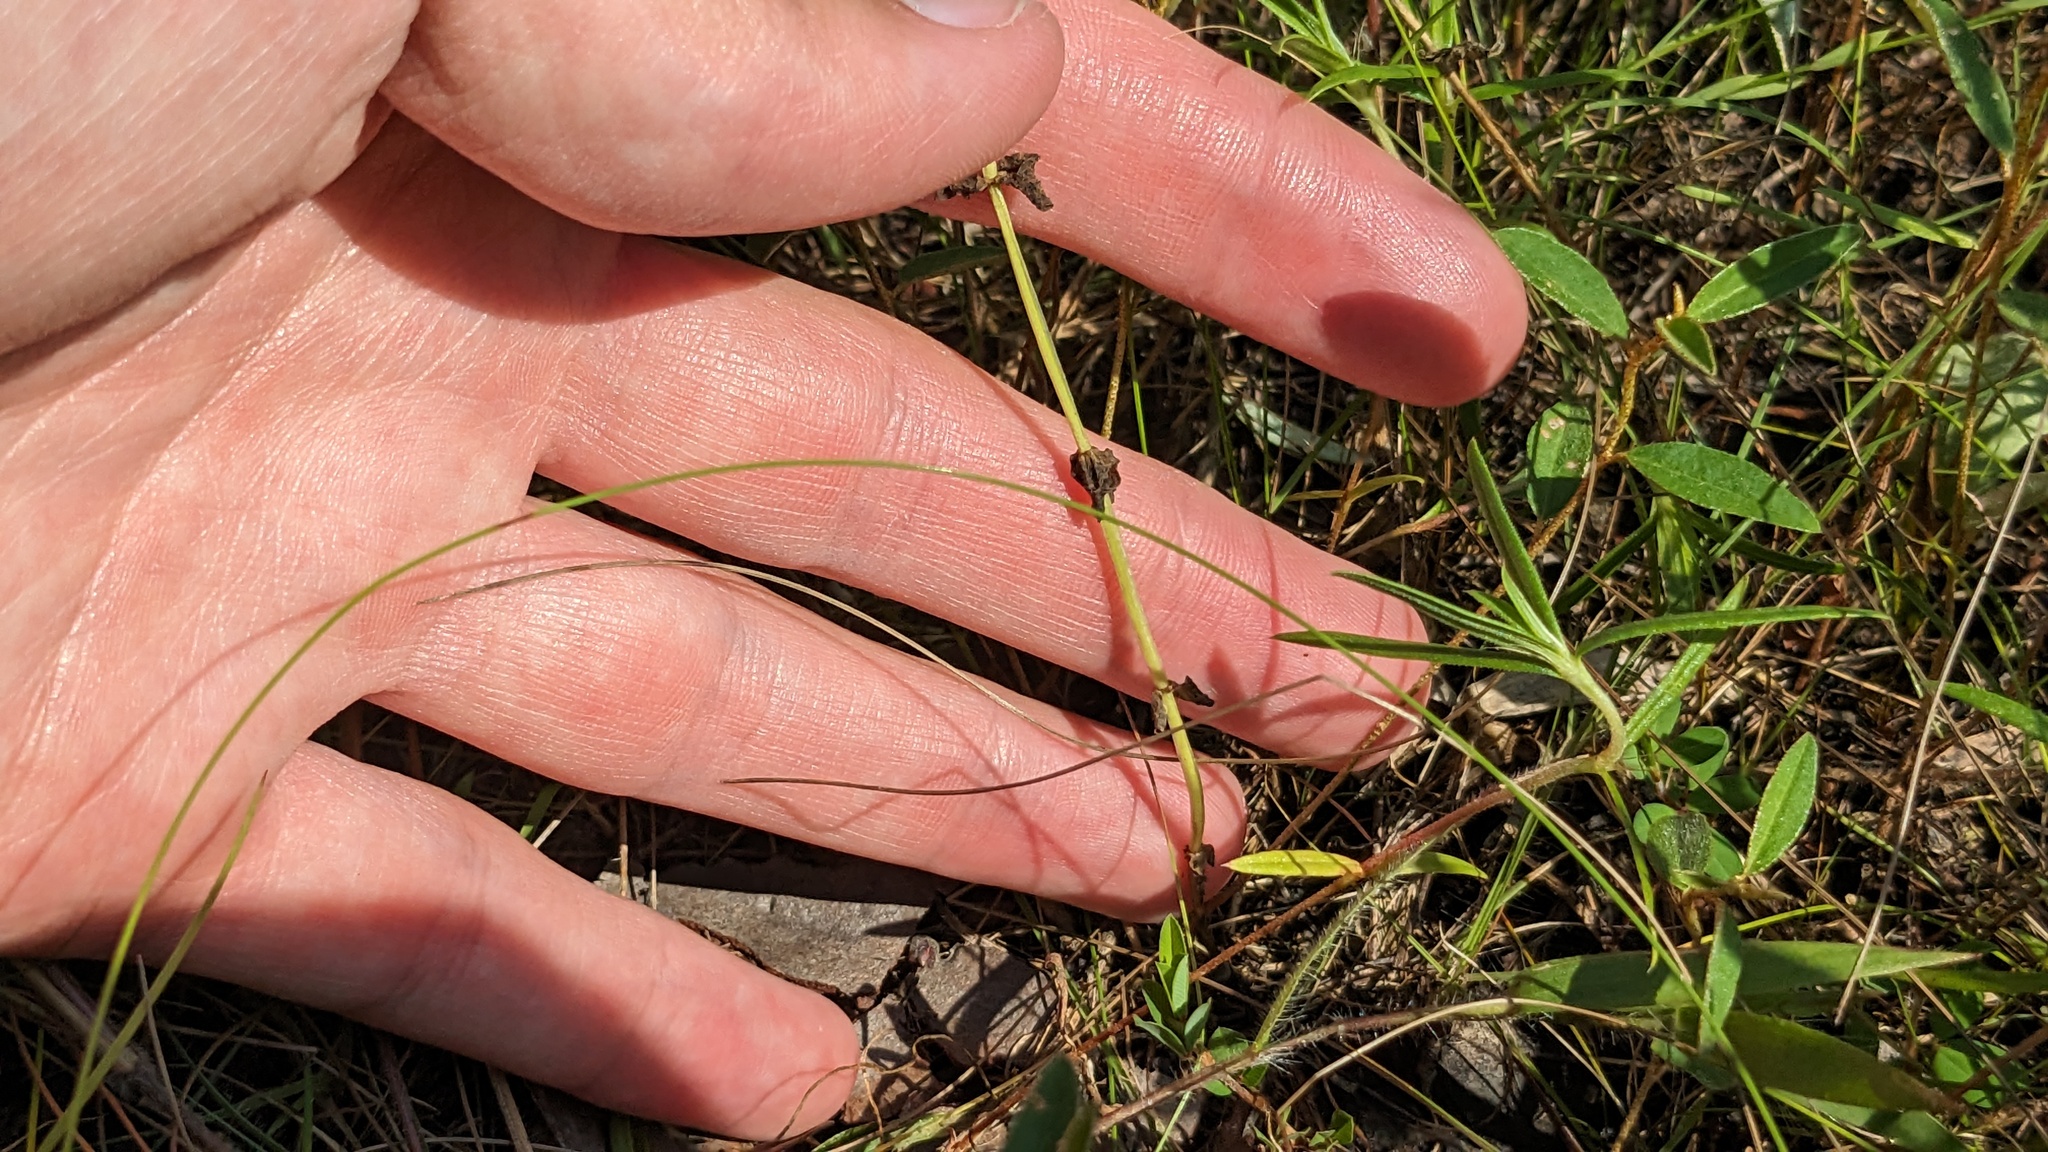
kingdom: Plantae
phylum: Tracheophyta
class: Magnoliopsida
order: Gentianales
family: Gentianaceae
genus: Sabatia
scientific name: Sabatia campestris
